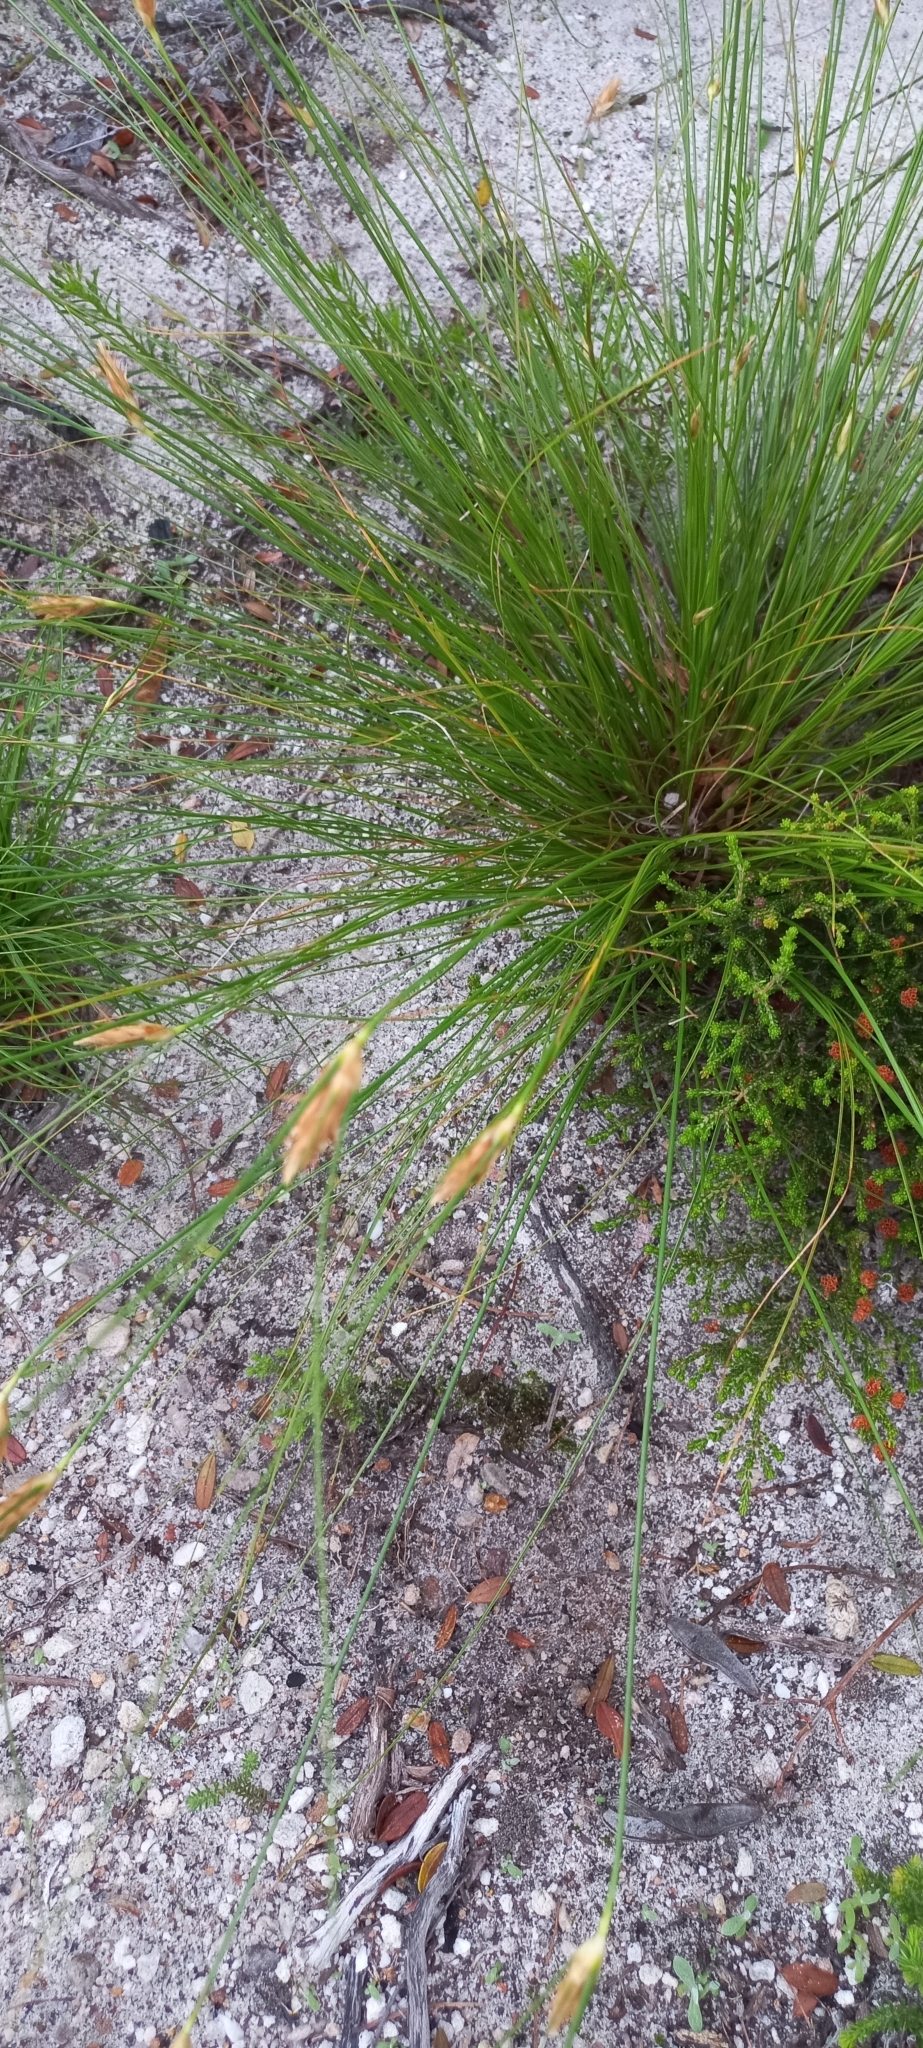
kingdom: Plantae
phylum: Tracheophyta
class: Liliopsida
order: Poales
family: Cyperaceae
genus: Ficinia
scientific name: Ficinia nigrescens
